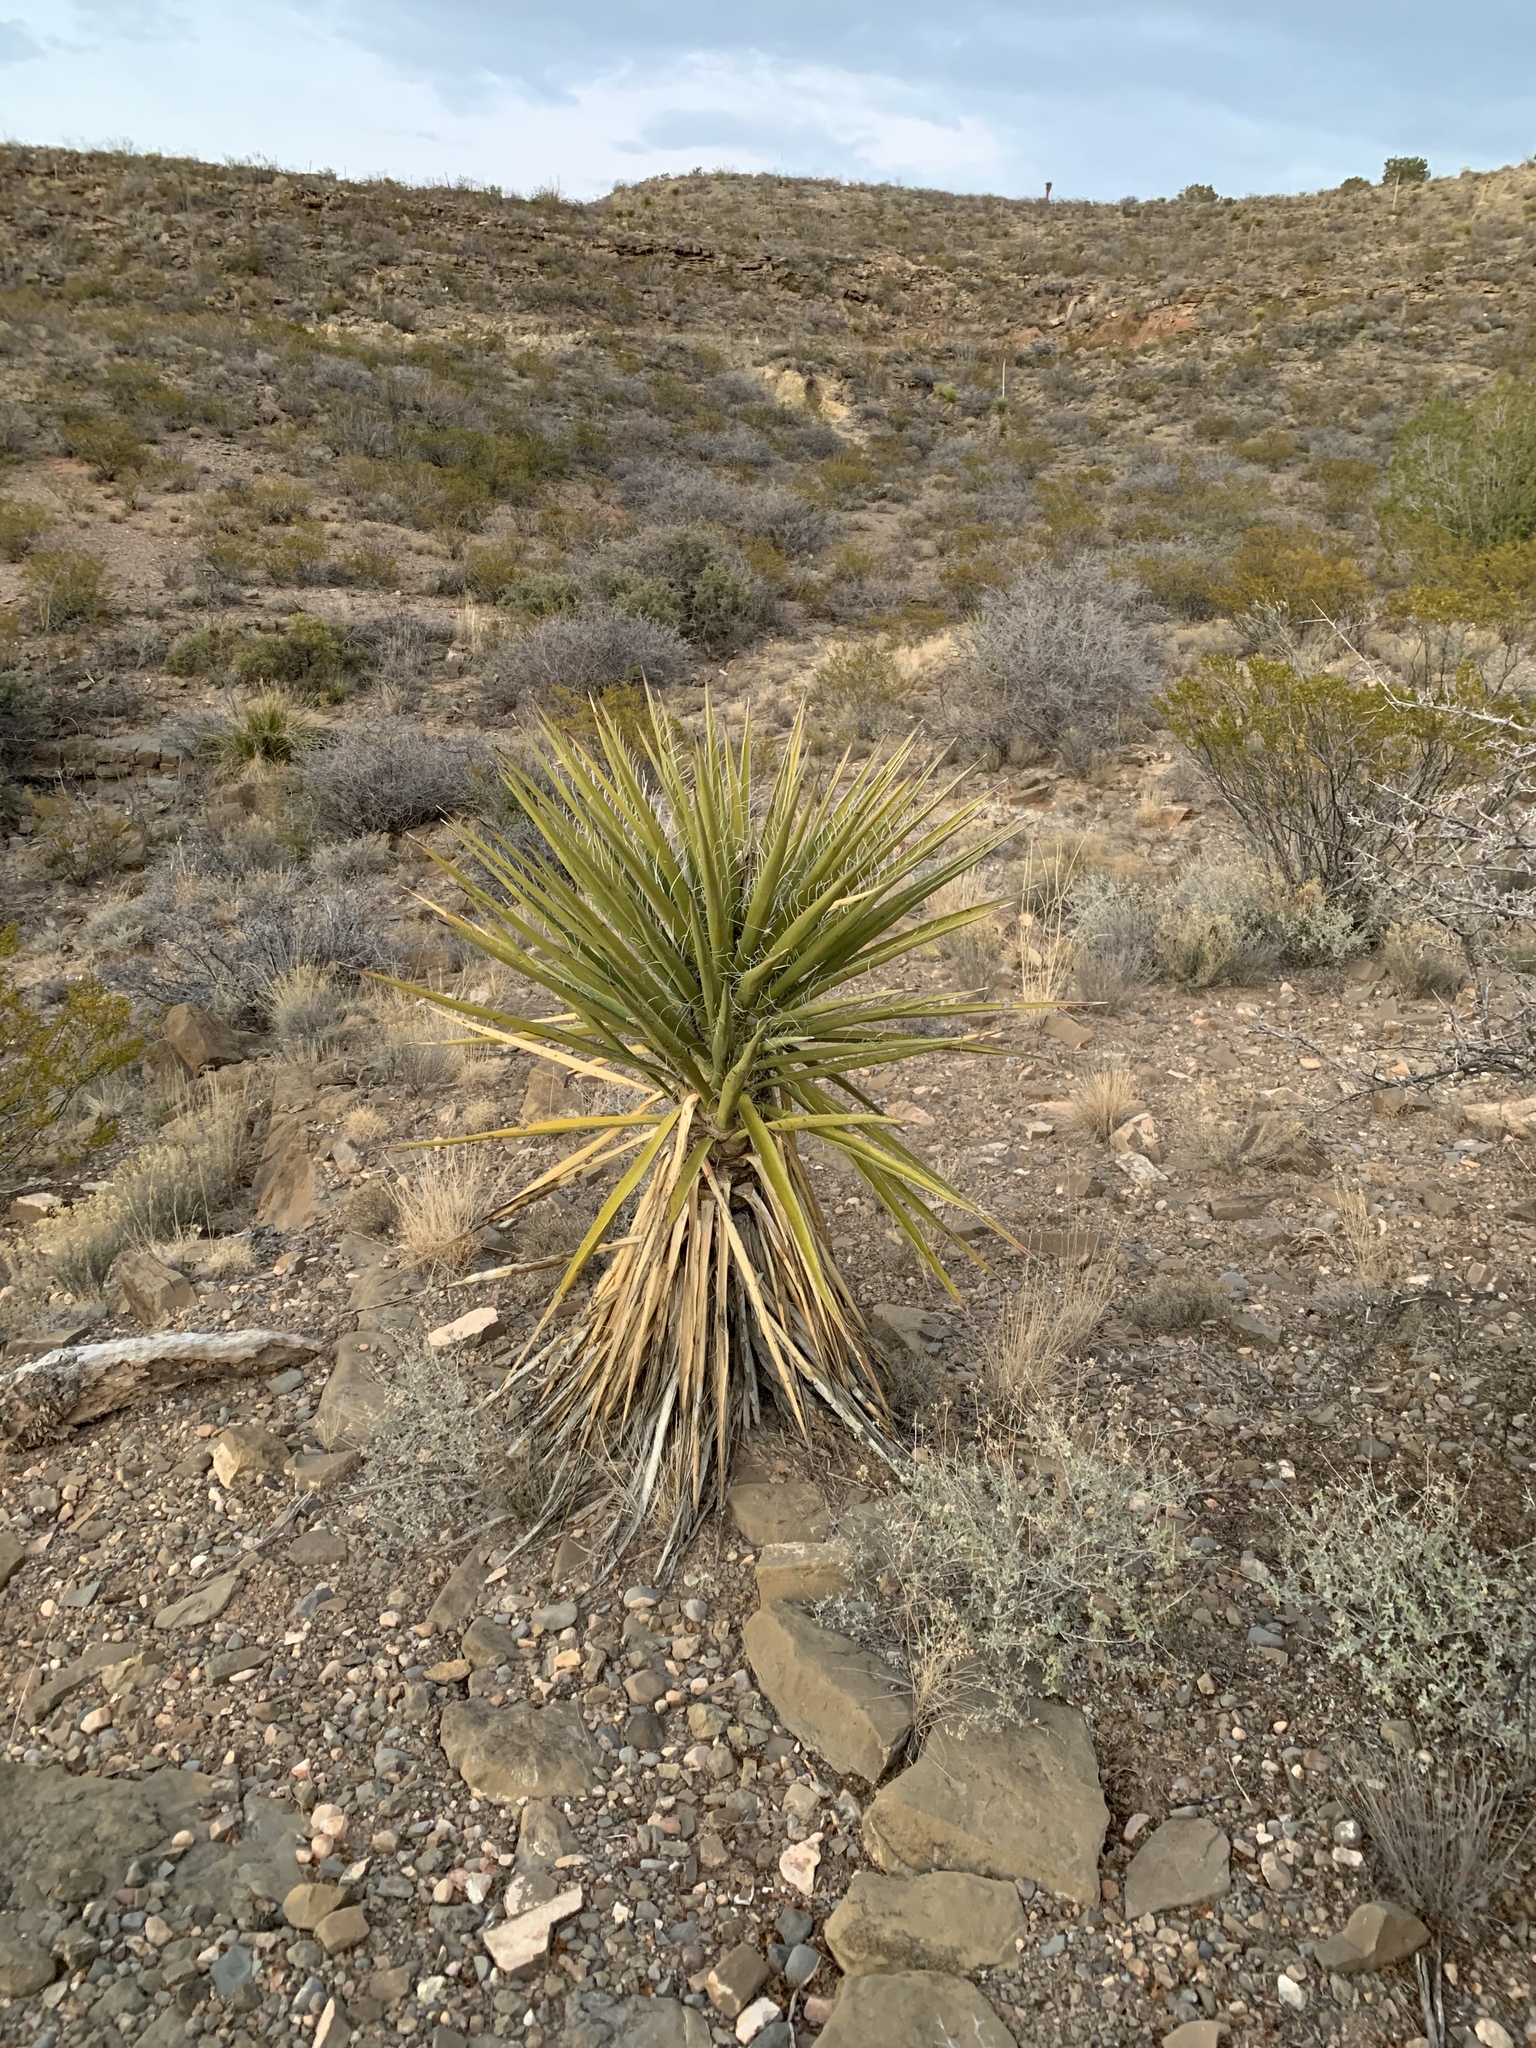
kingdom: Plantae
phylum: Tracheophyta
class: Liliopsida
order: Asparagales
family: Asparagaceae
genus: Yucca
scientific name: Yucca treculiana
